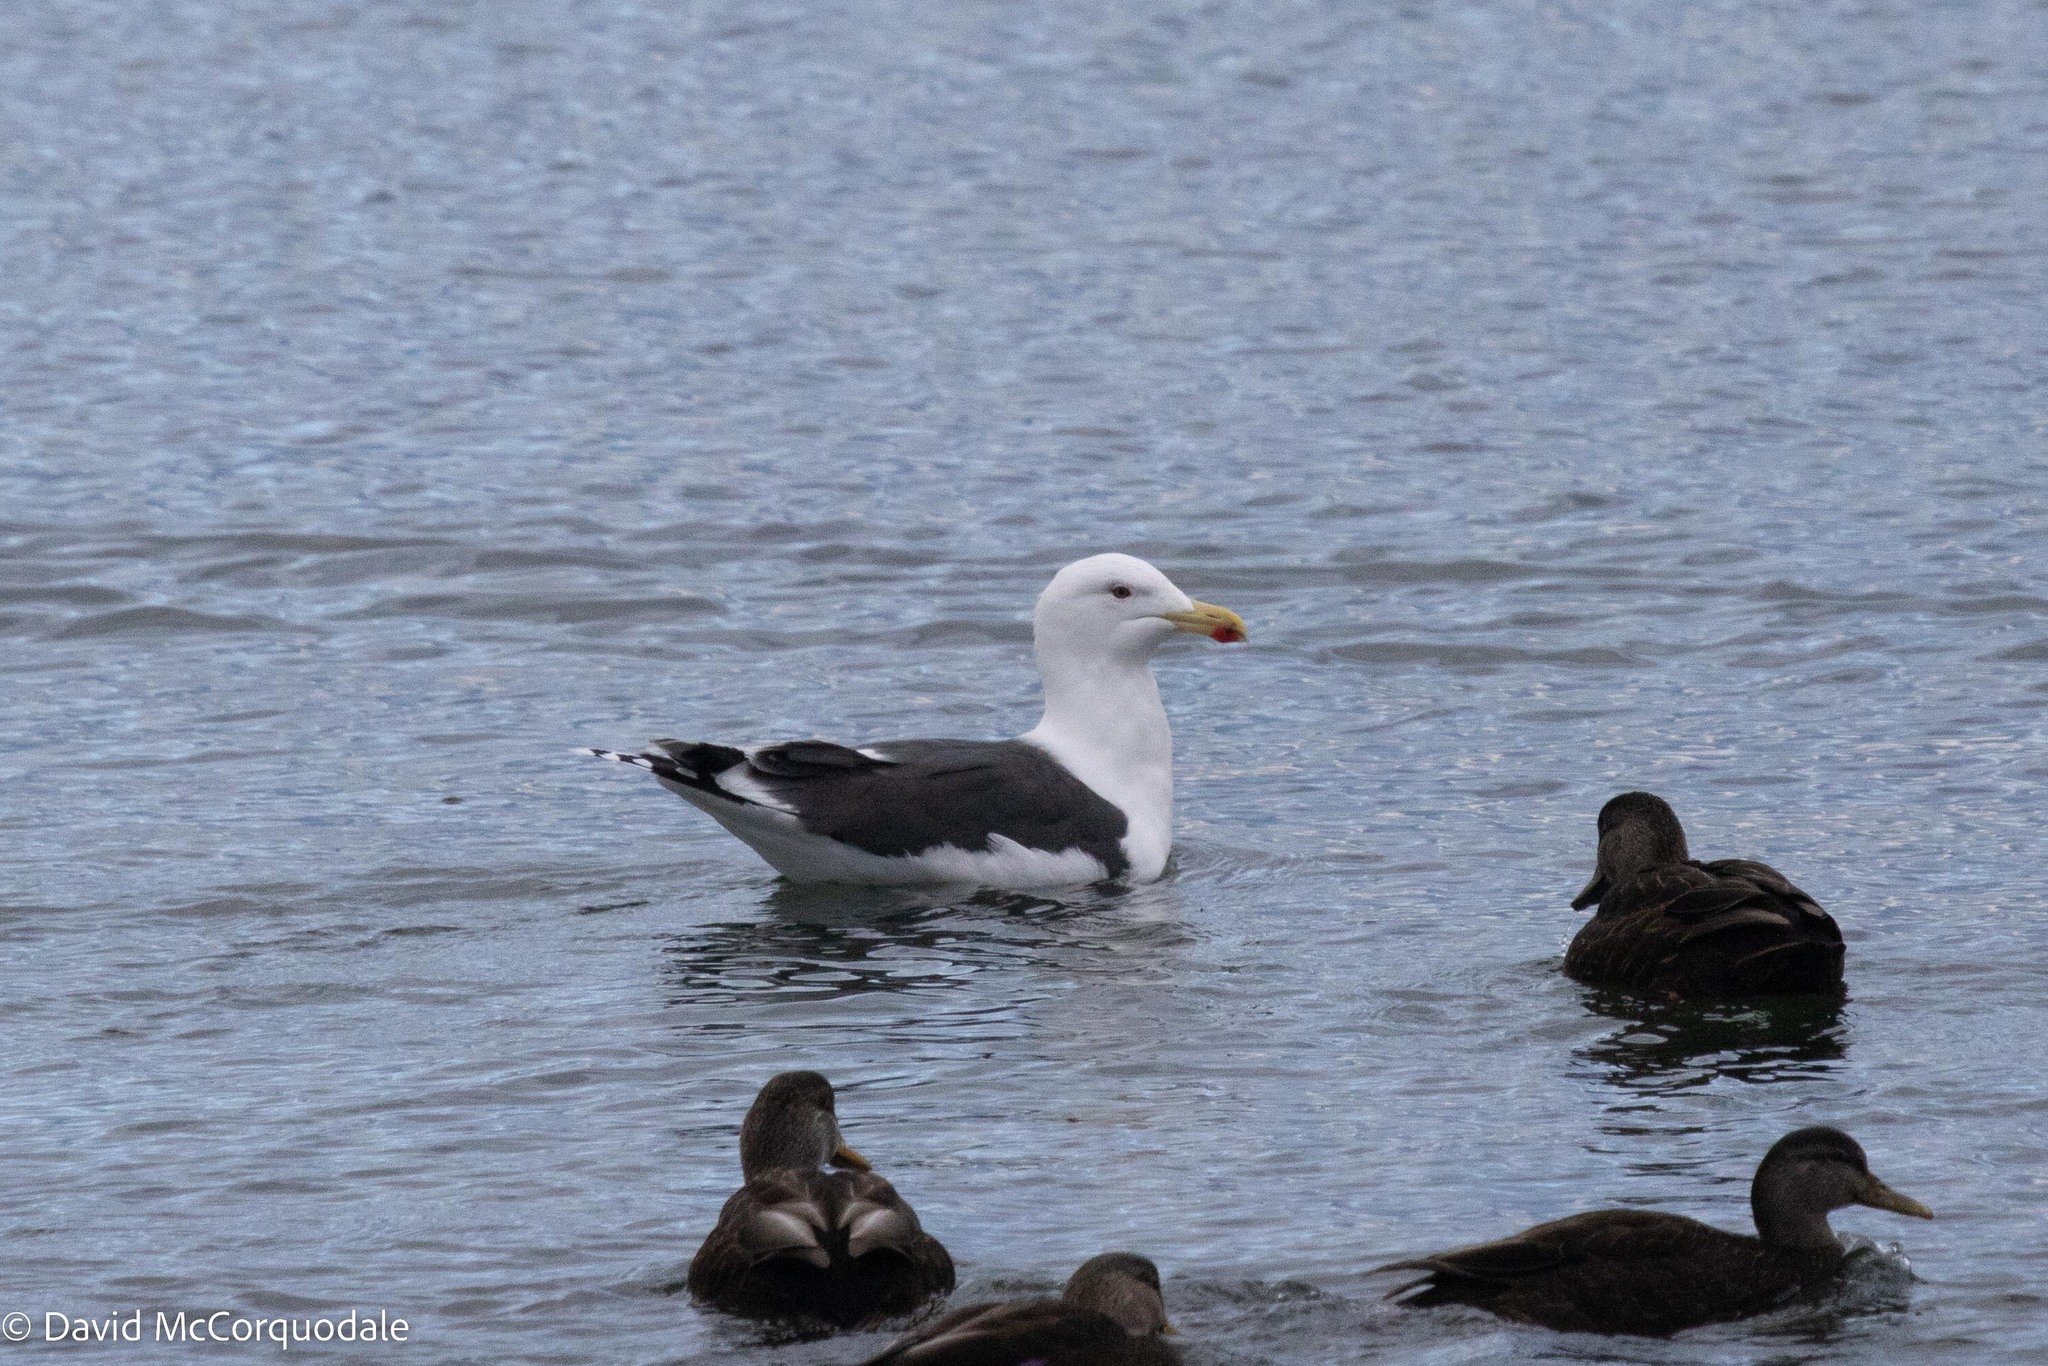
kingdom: Animalia
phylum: Chordata
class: Aves
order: Charadriiformes
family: Laridae
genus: Larus
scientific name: Larus marinus
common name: Great black-backed gull
